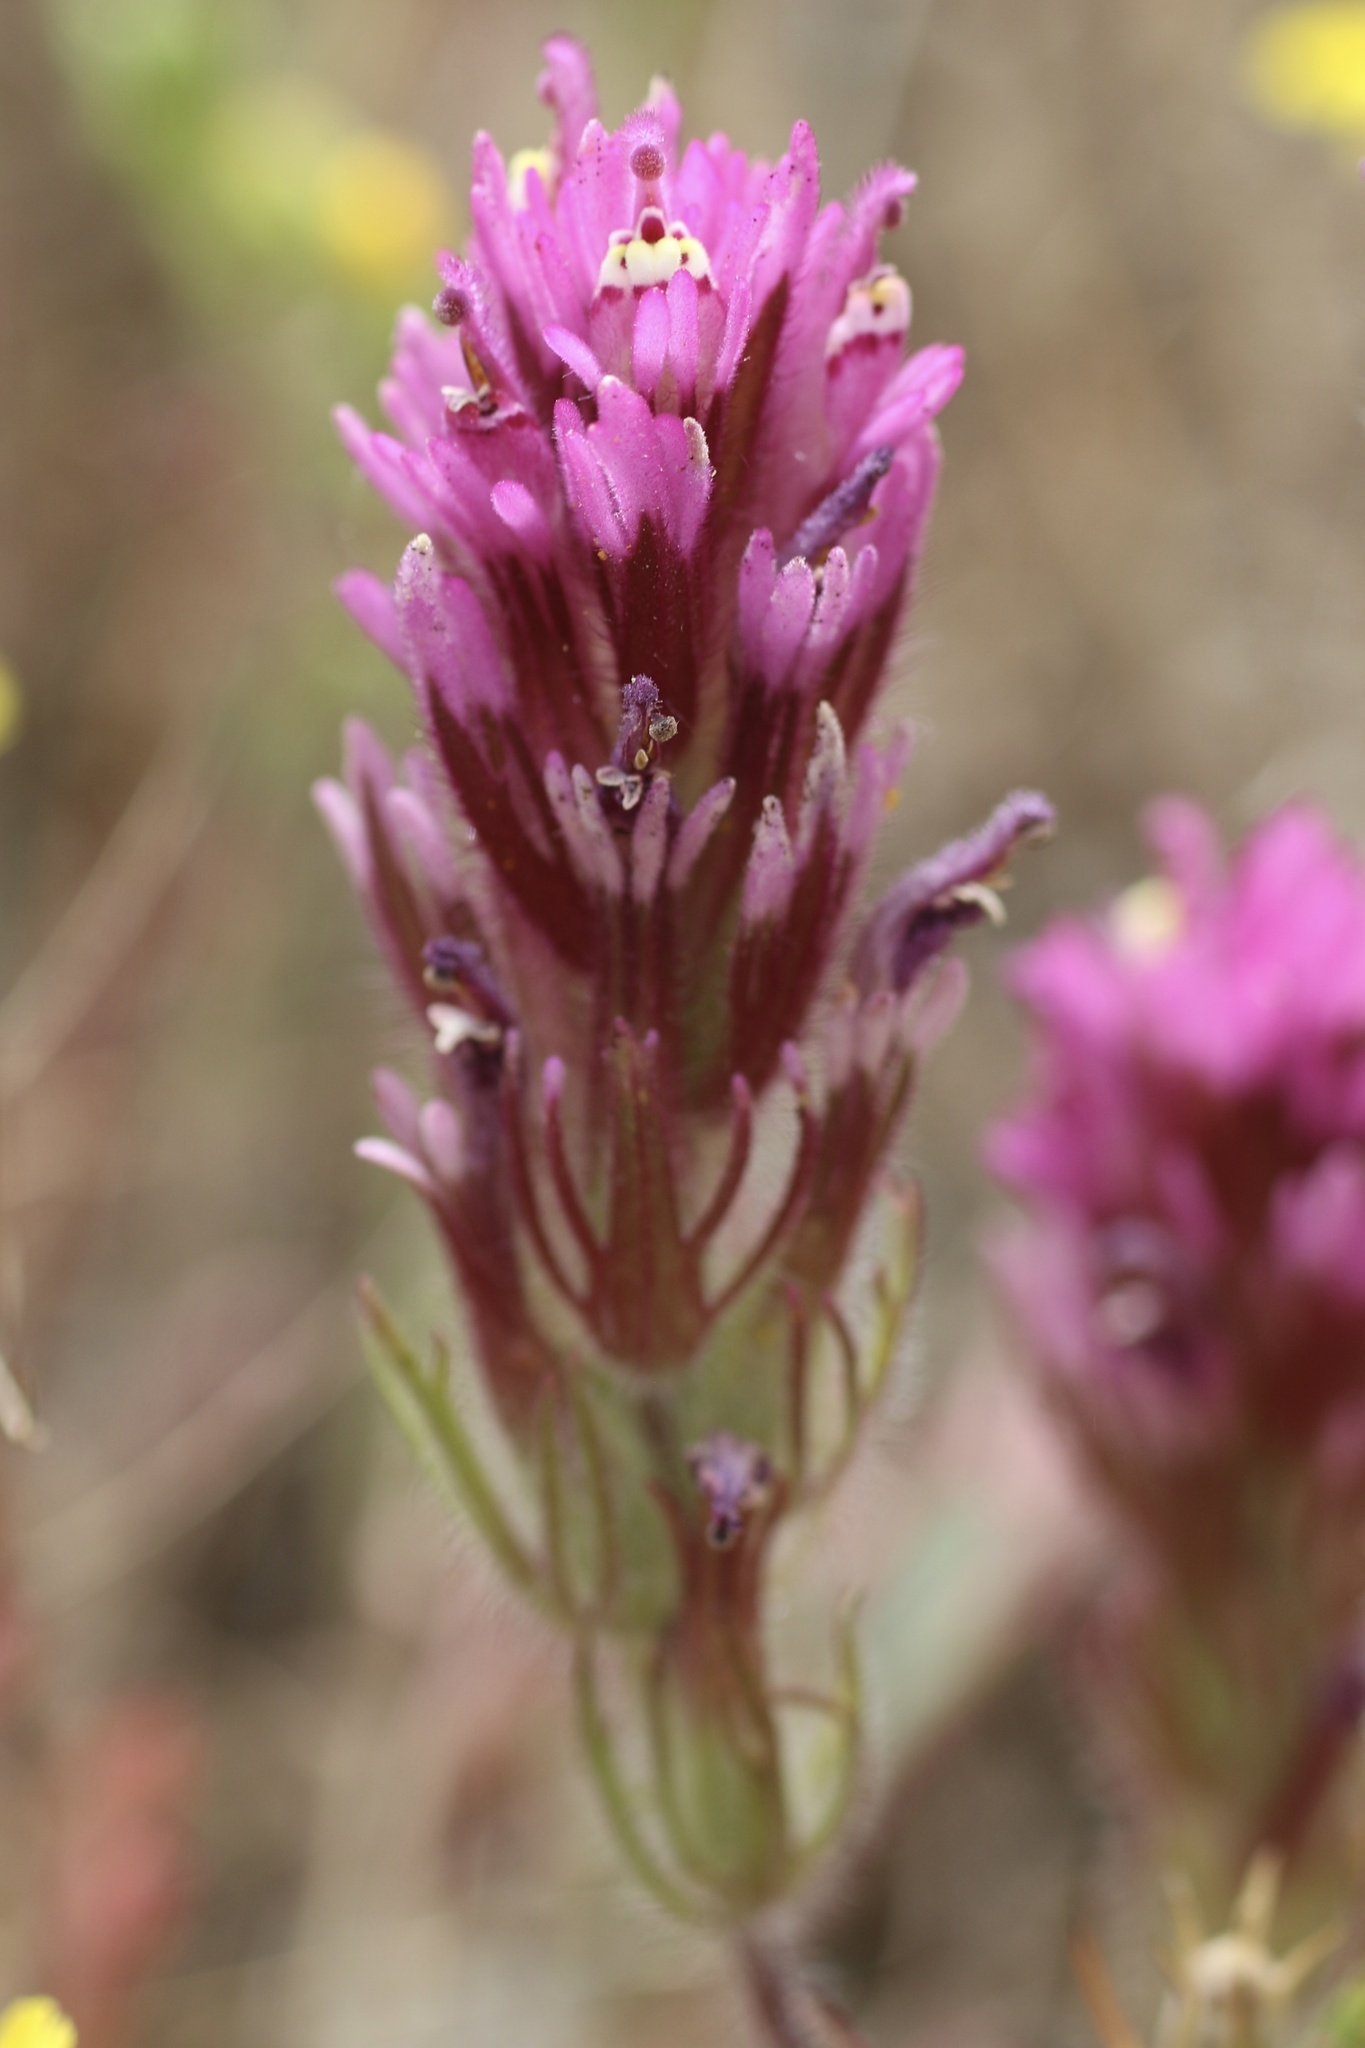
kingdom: Plantae
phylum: Tracheophyta
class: Magnoliopsida
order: Lamiales
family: Orobanchaceae
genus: Castilleja
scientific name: Castilleja exserta
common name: Purple owl-clover
